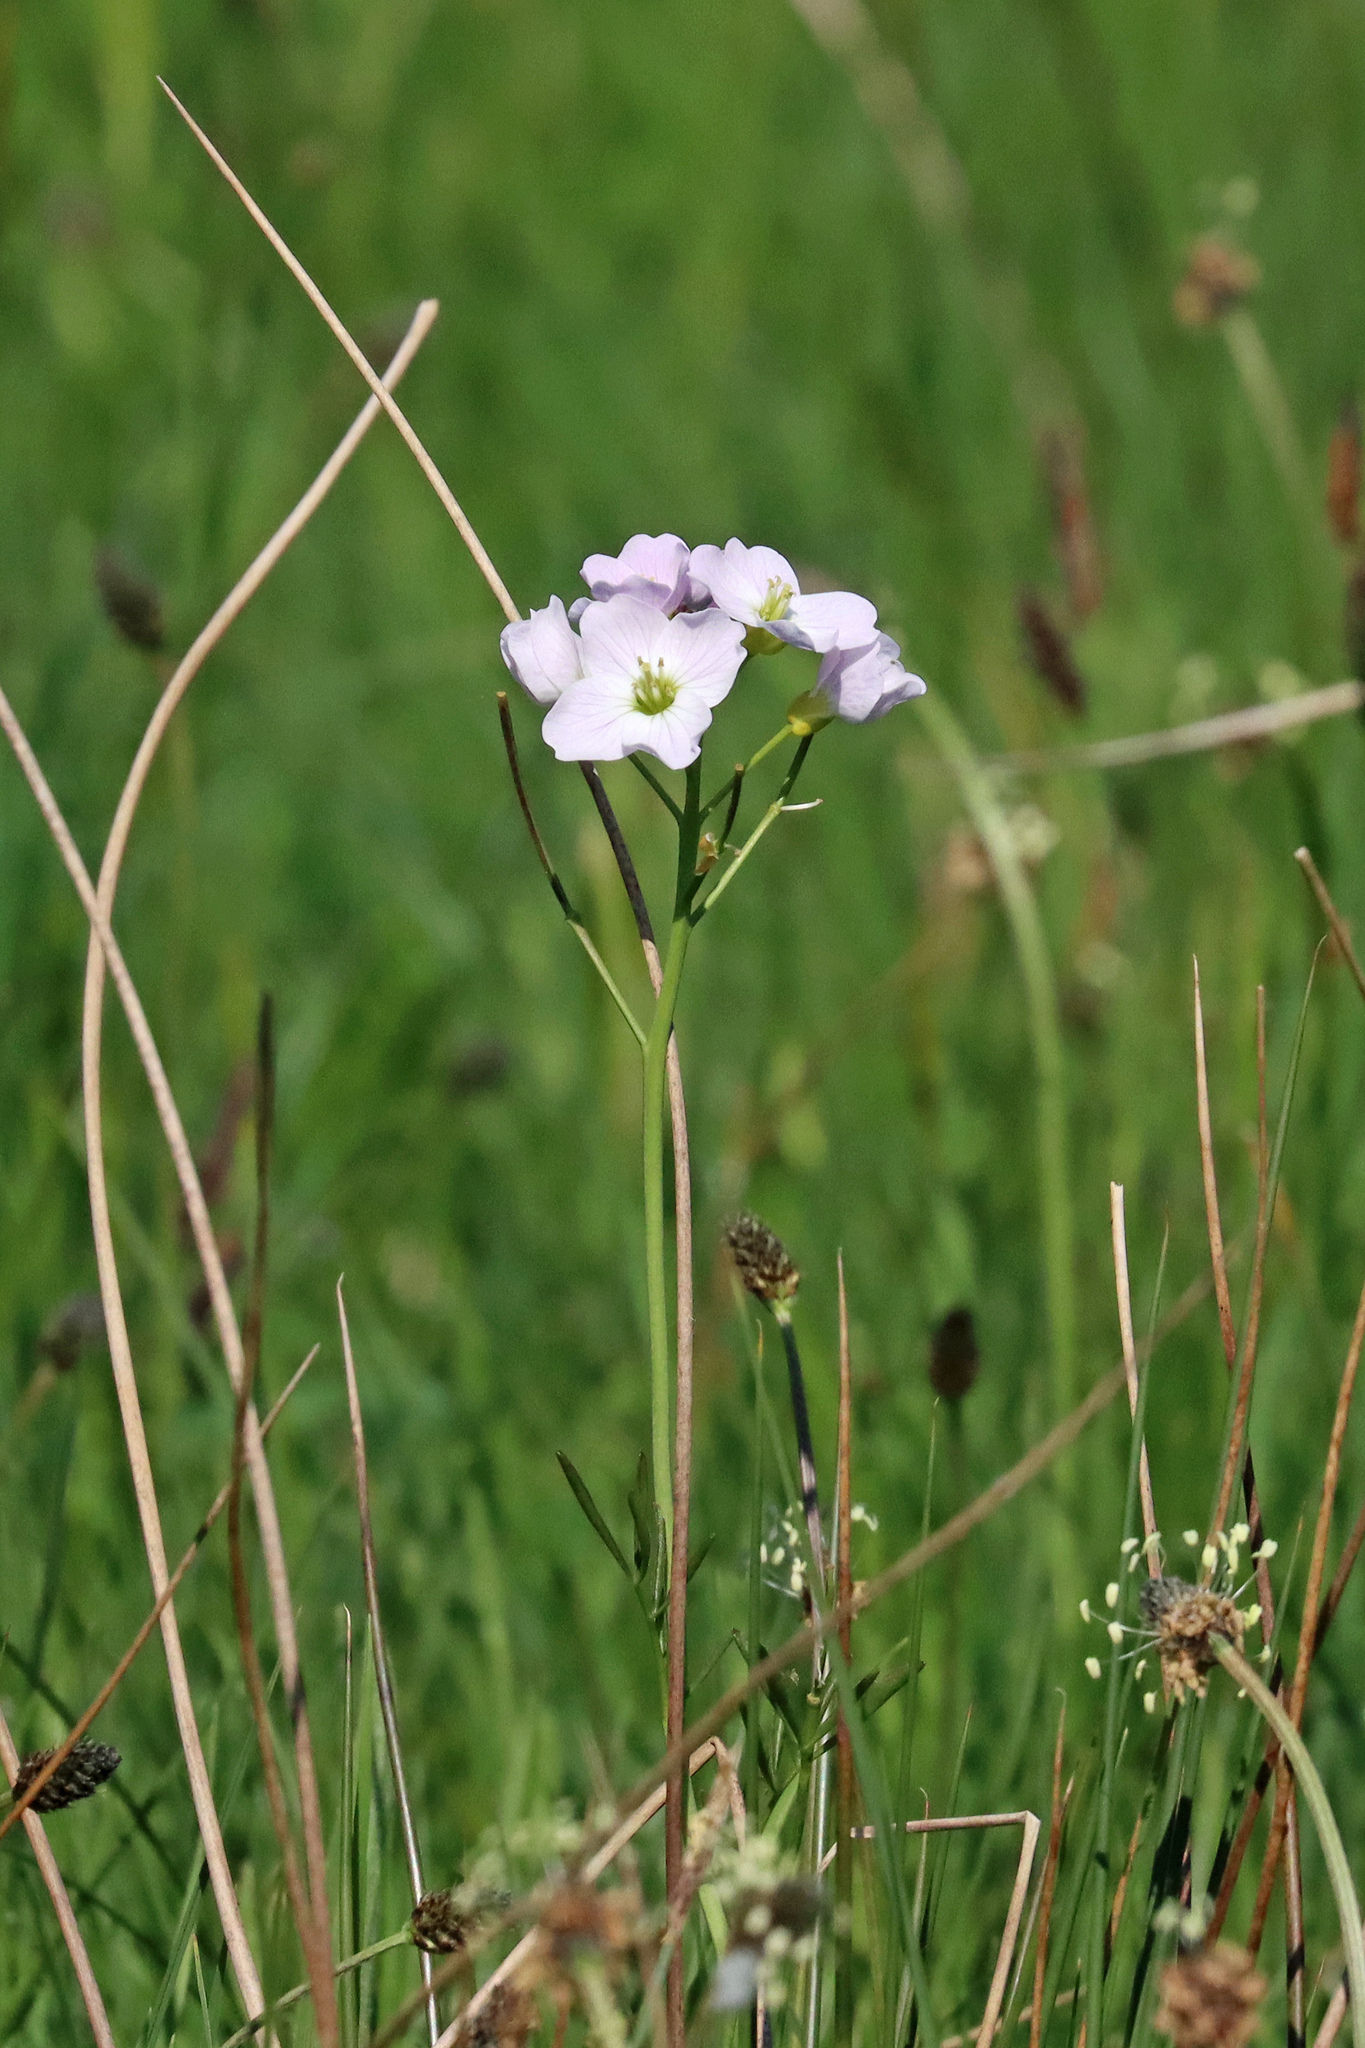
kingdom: Plantae
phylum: Tracheophyta
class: Magnoliopsida
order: Brassicales
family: Brassicaceae
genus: Cardamine
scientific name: Cardamine pratensis
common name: Cuckoo flower
